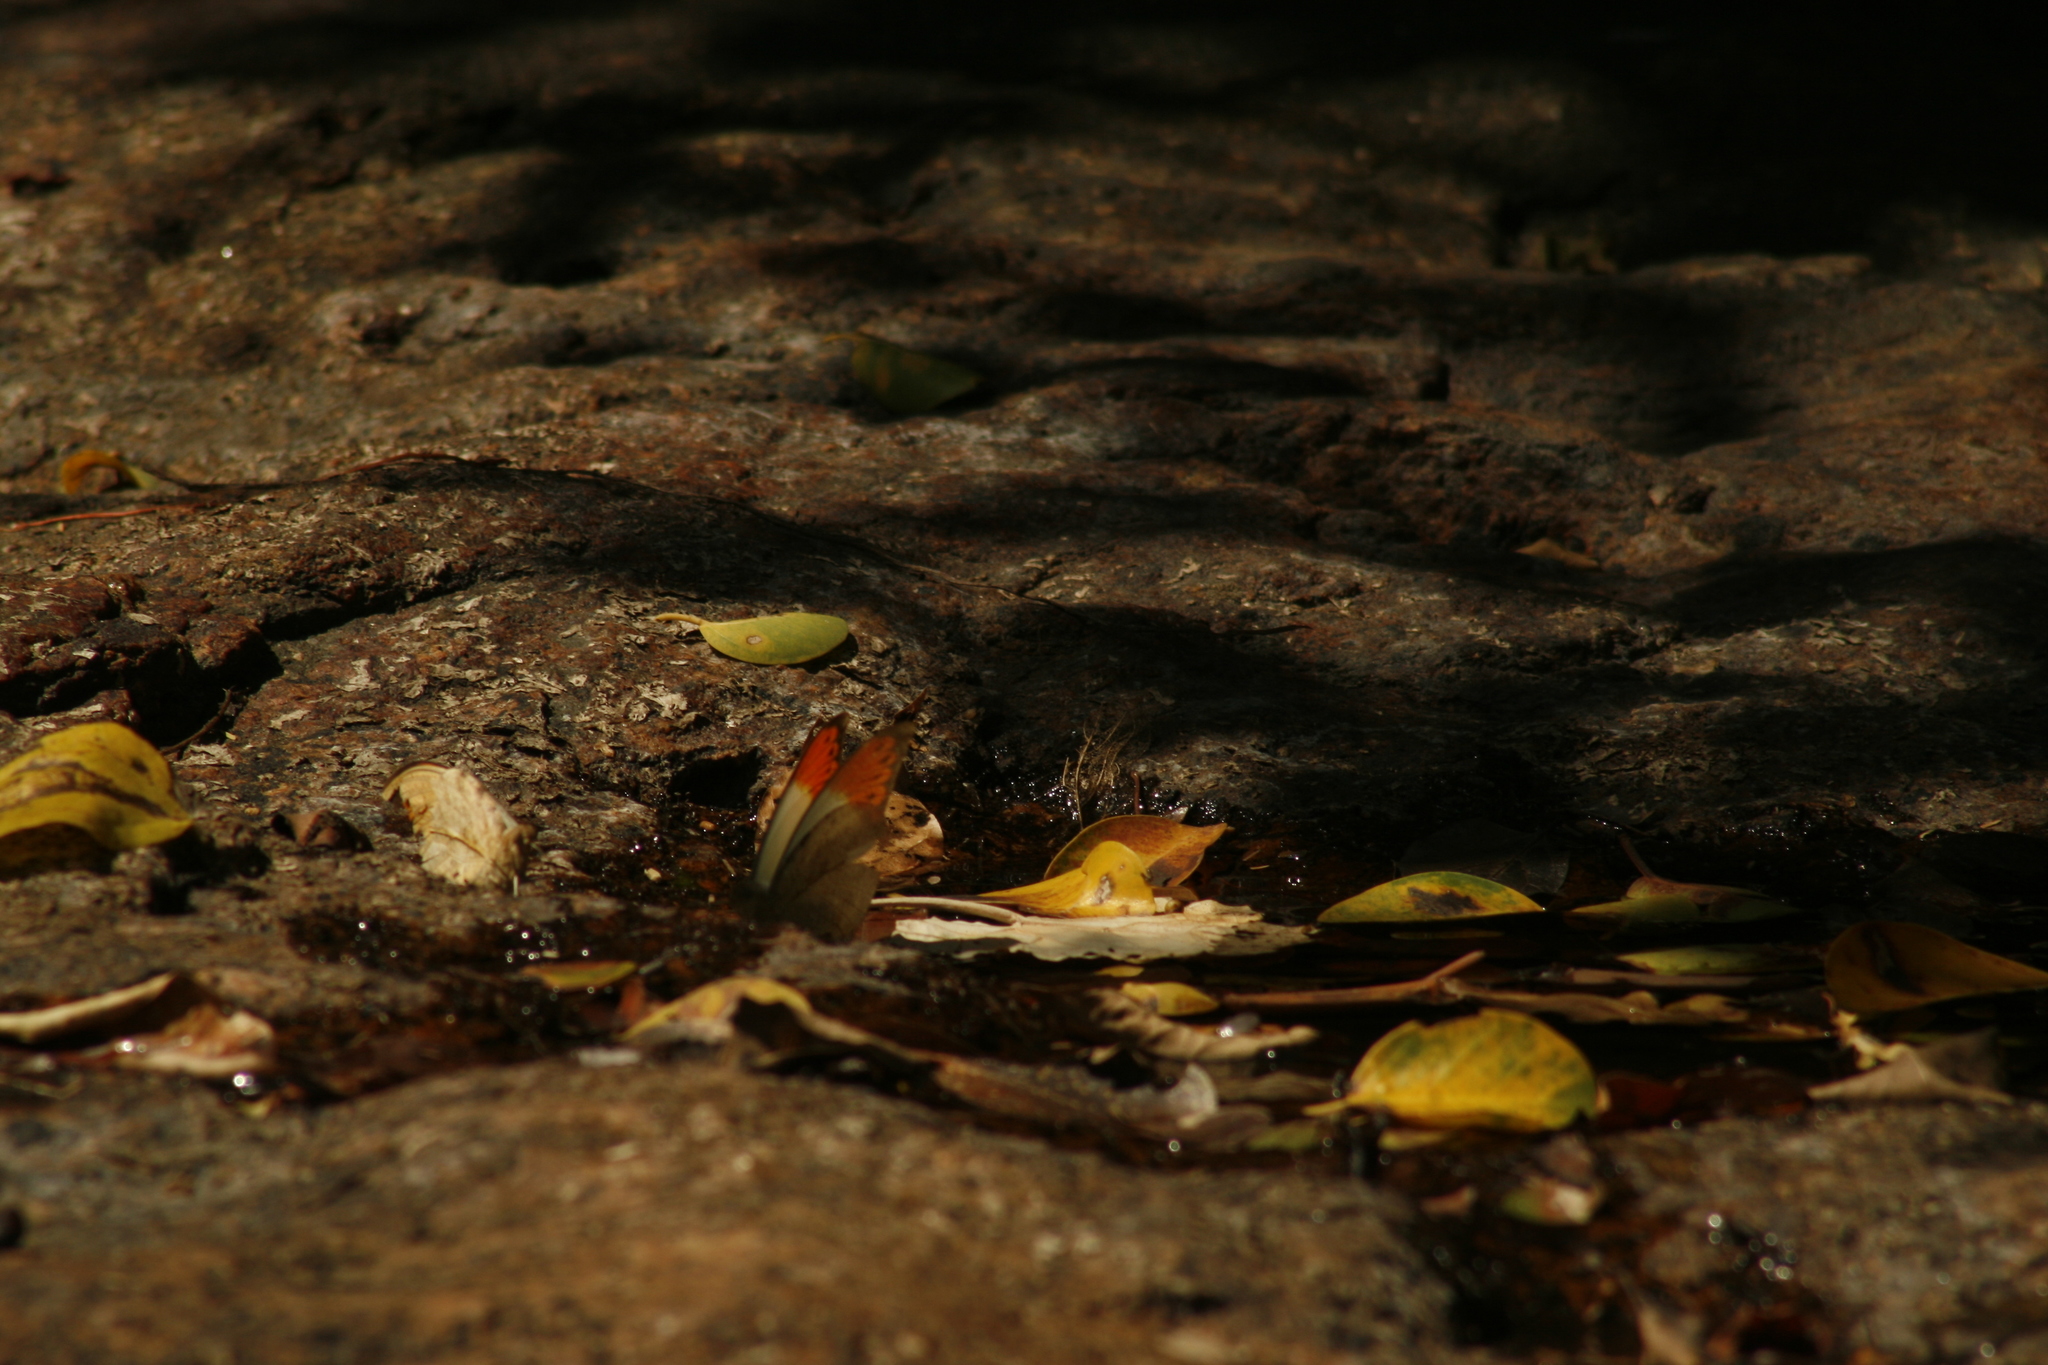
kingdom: Animalia
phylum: Arthropoda
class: Insecta
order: Lepidoptera
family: Pieridae
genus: Hebomoia
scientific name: Hebomoia glaucippe
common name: Great orange tip
